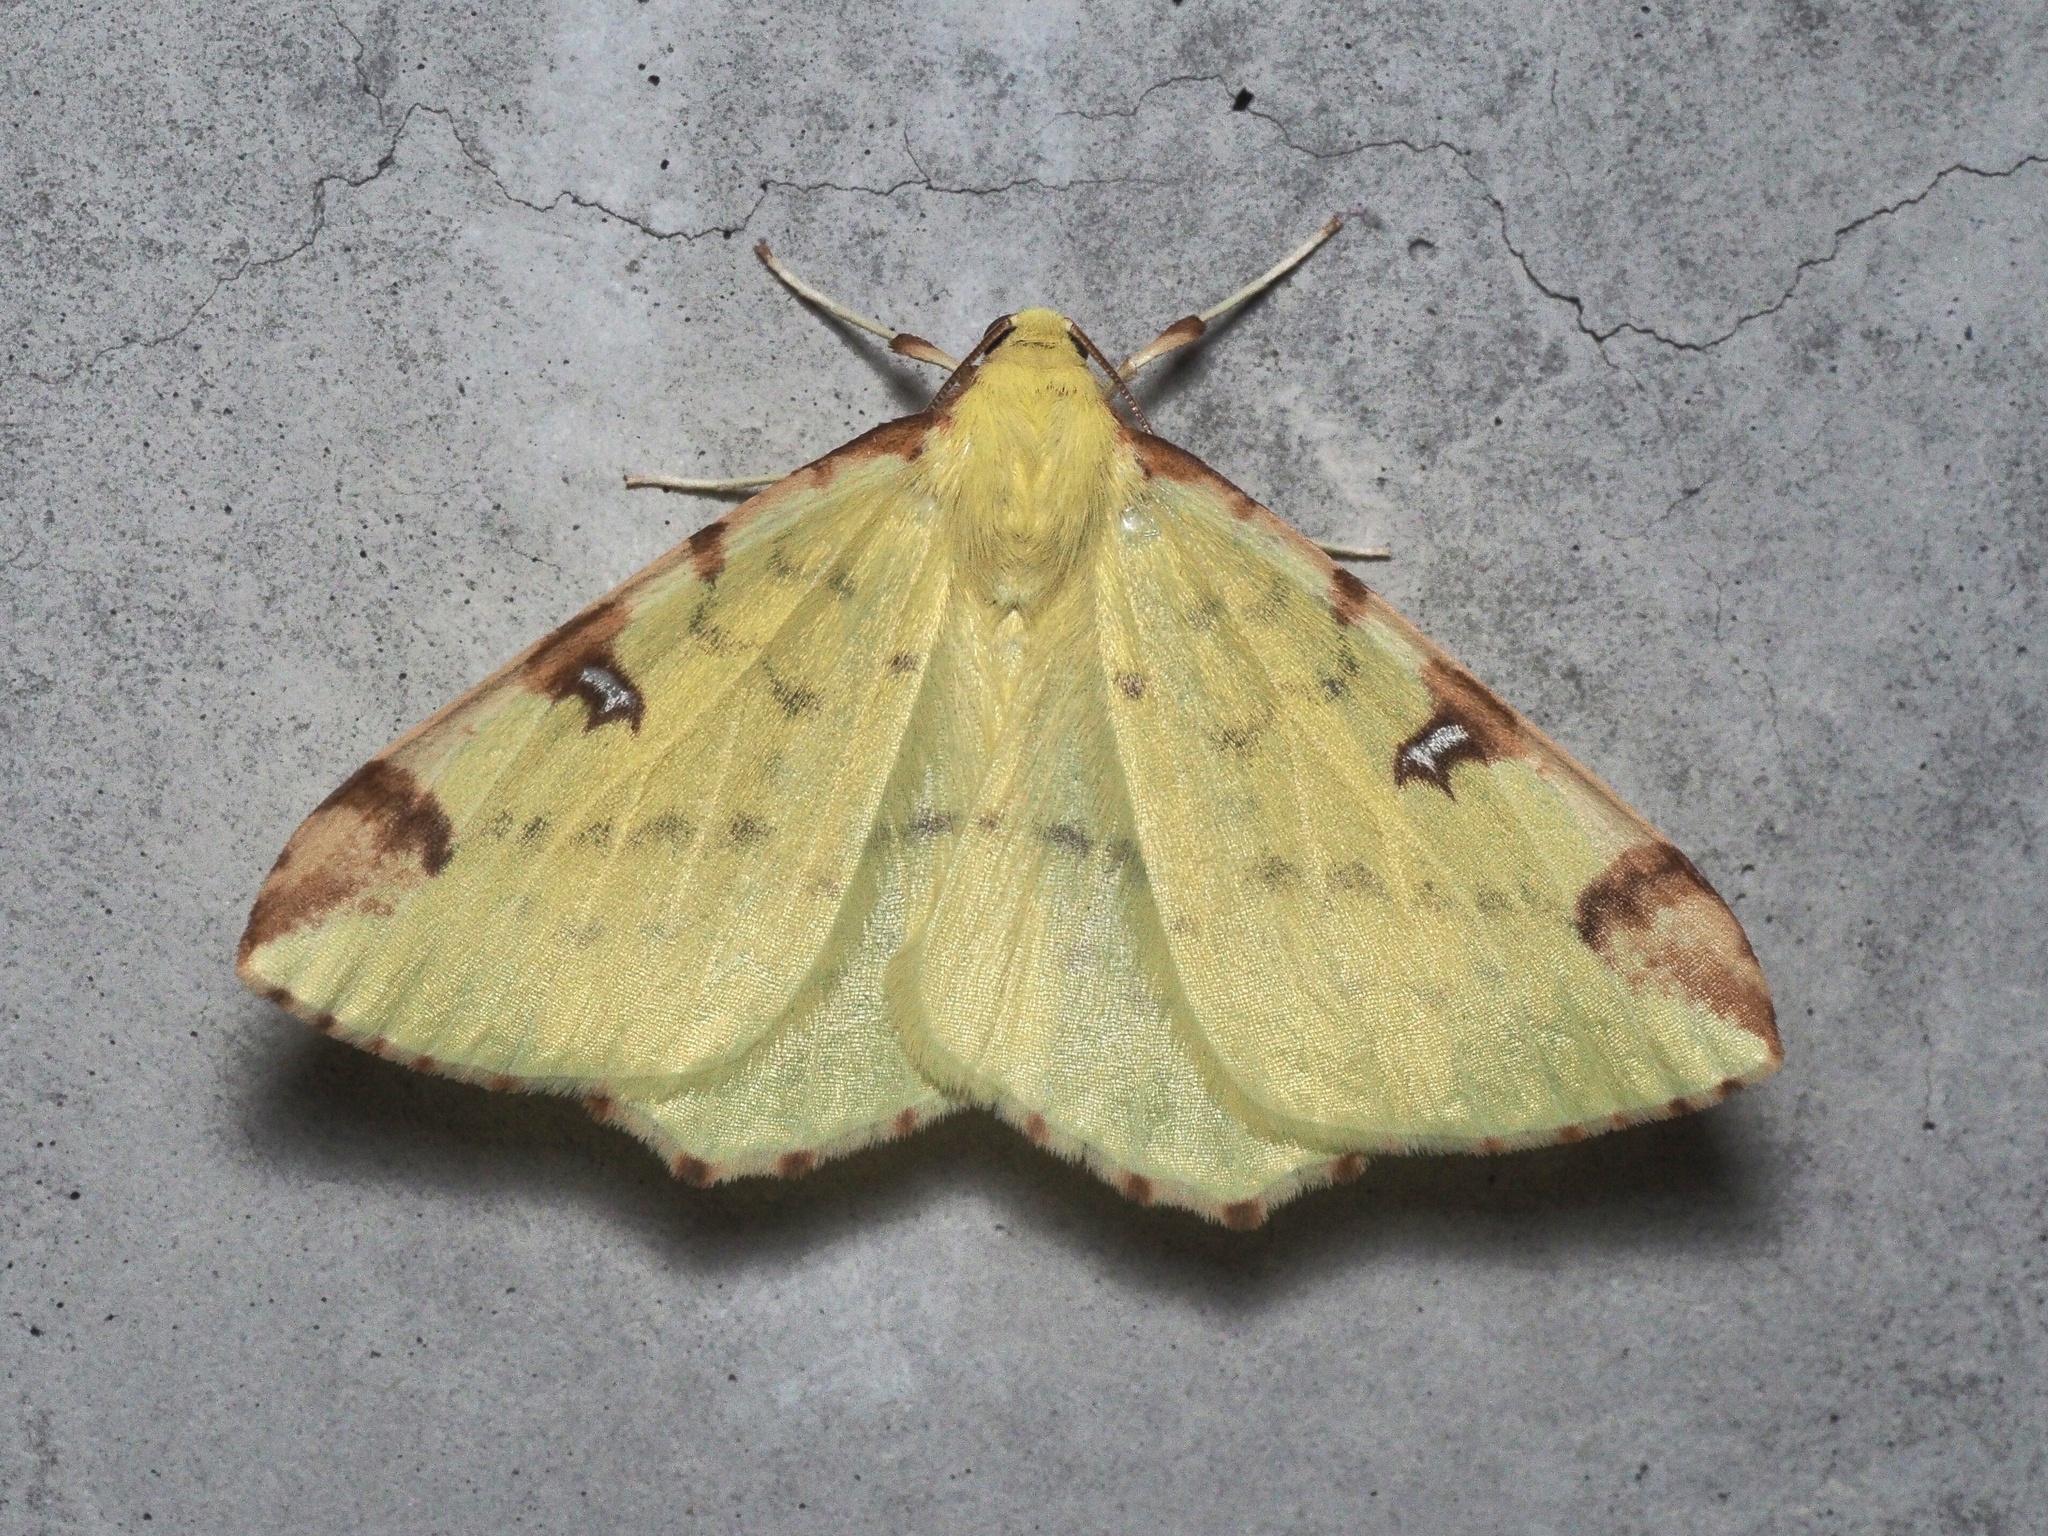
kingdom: Animalia
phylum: Arthropoda
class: Insecta
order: Lepidoptera
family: Geometridae
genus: Opisthograptis
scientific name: Opisthograptis luteolata
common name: Brimstone moth
